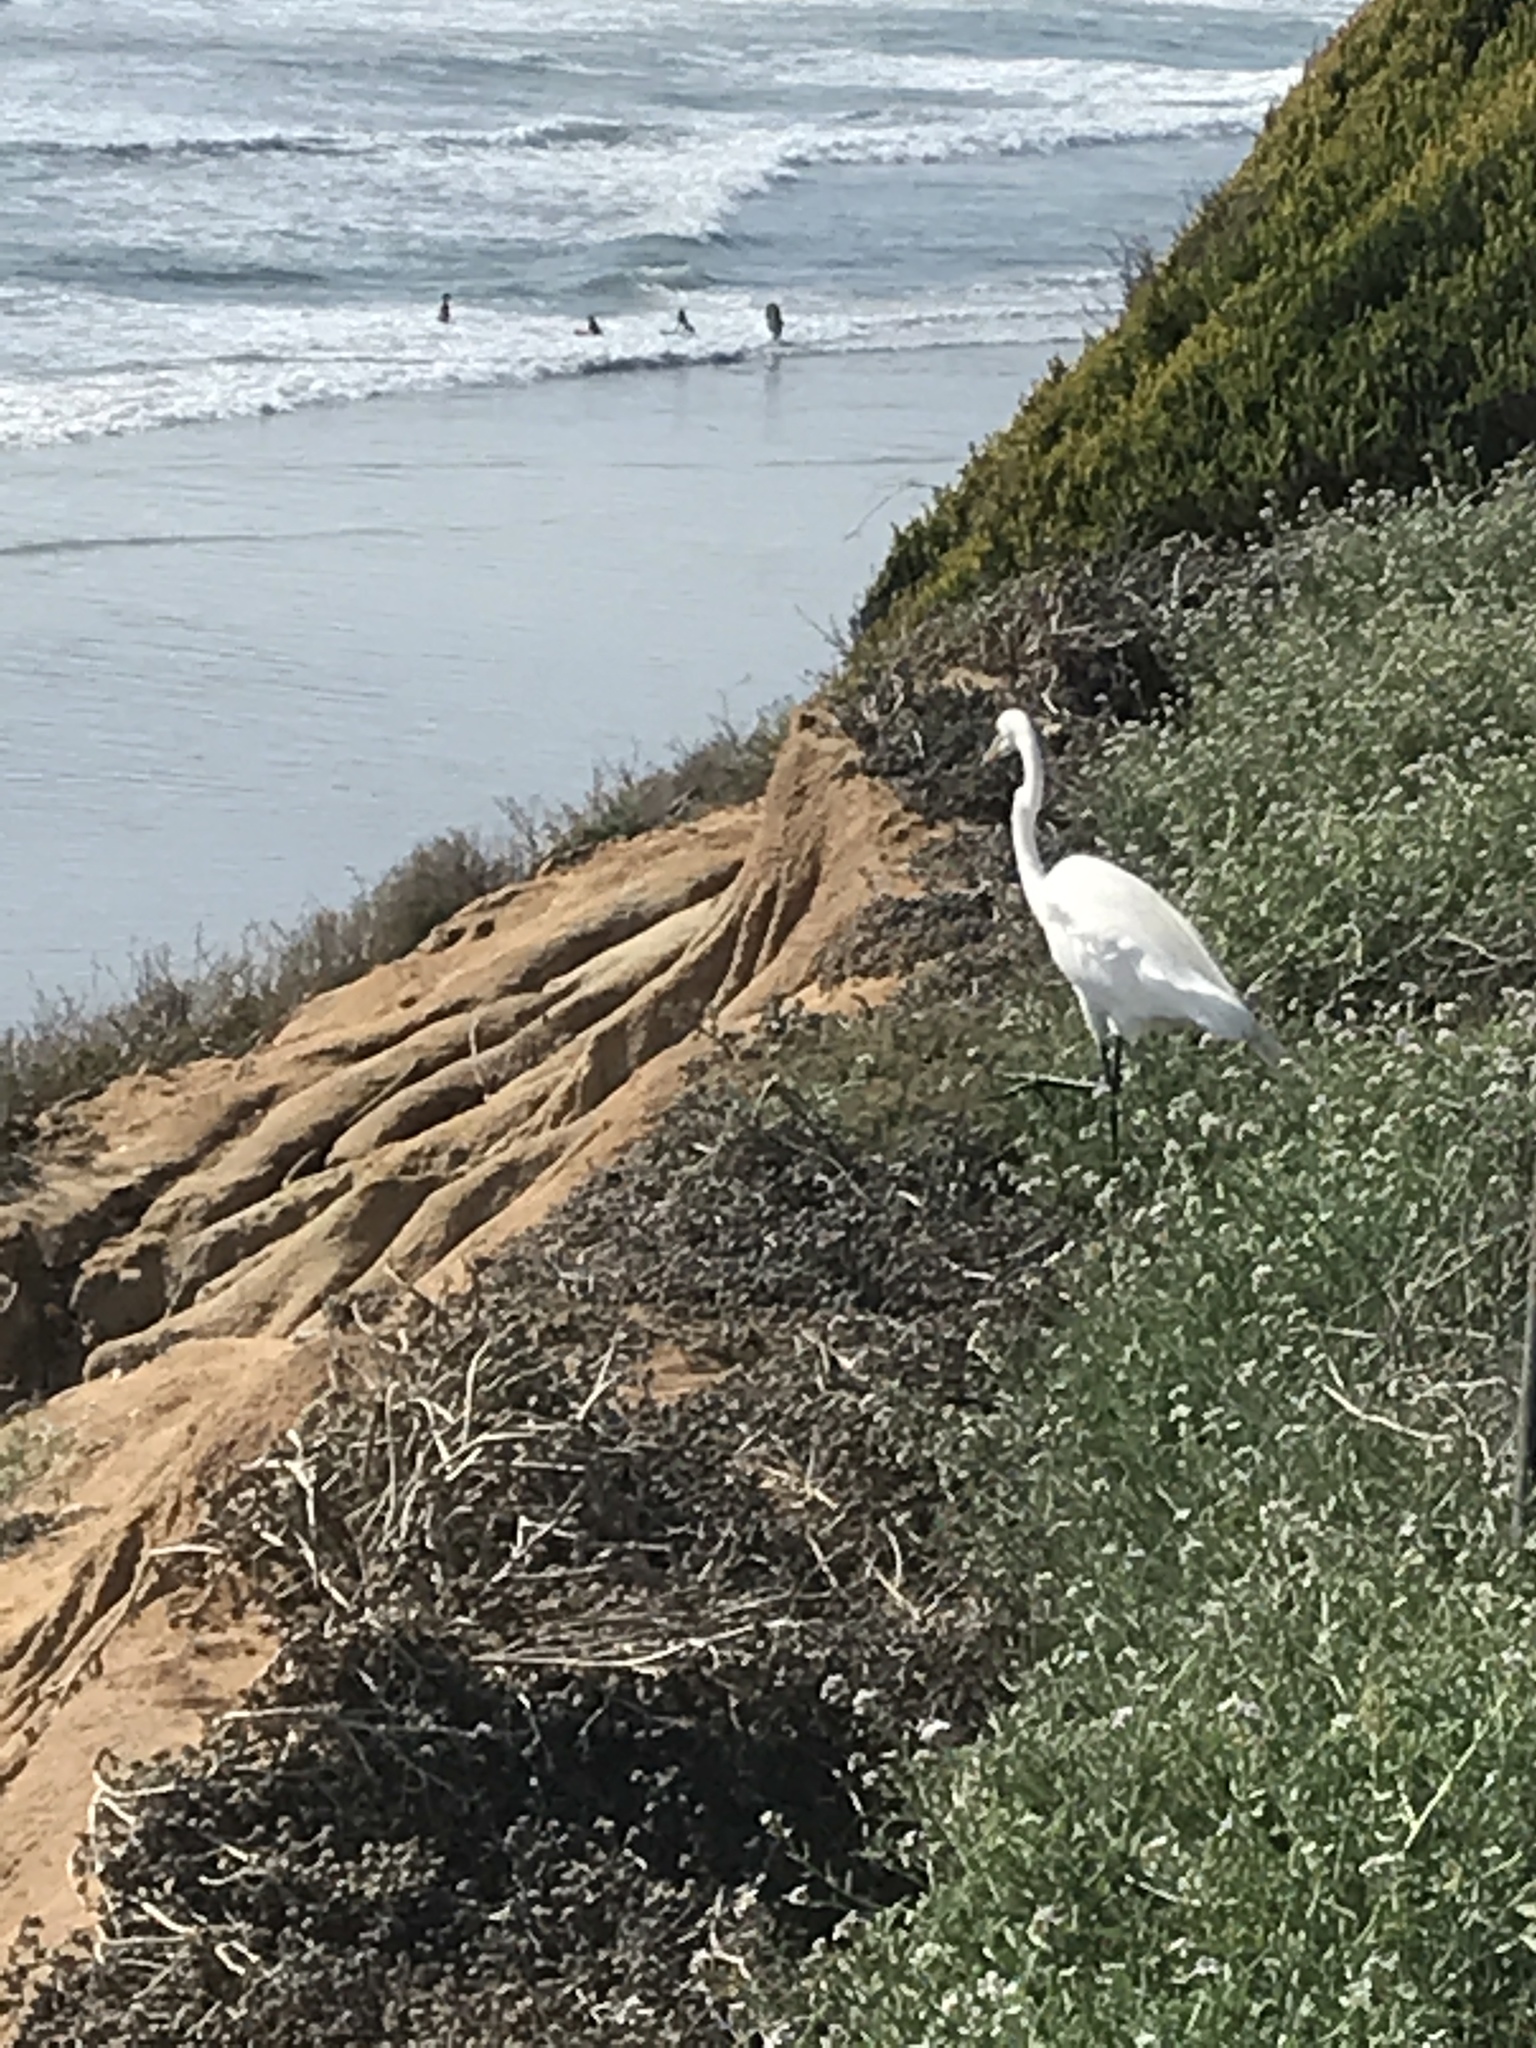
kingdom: Animalia
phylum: Chordata
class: Aves
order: Pelecaniformes
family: Ardeidae
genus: Ardea
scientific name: Ardea alba
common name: Great egret
